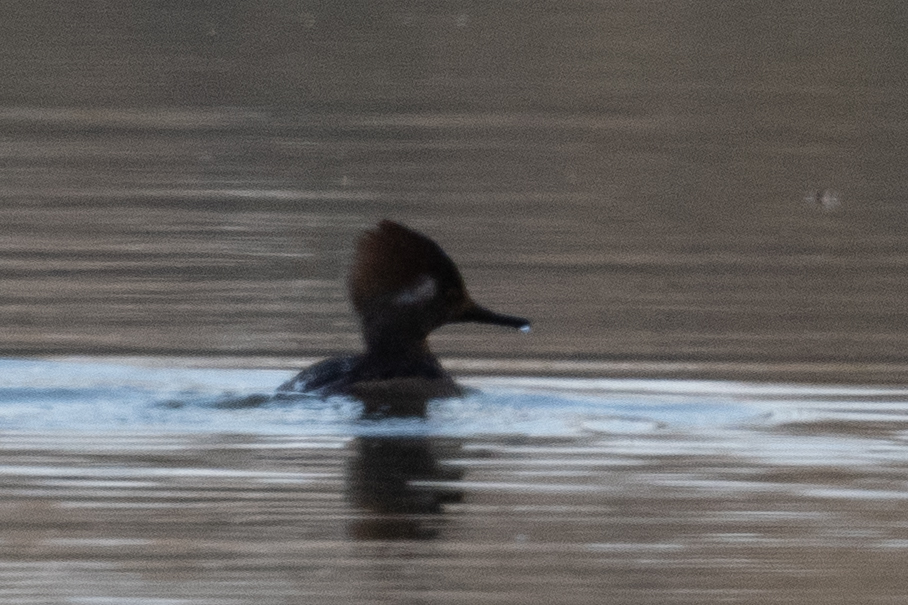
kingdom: Animalia
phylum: Chordata
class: Aves
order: Anseriformes
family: Anatidae
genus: Lophodytes
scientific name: Lophodytes cucullatus
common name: Hooded merganser
